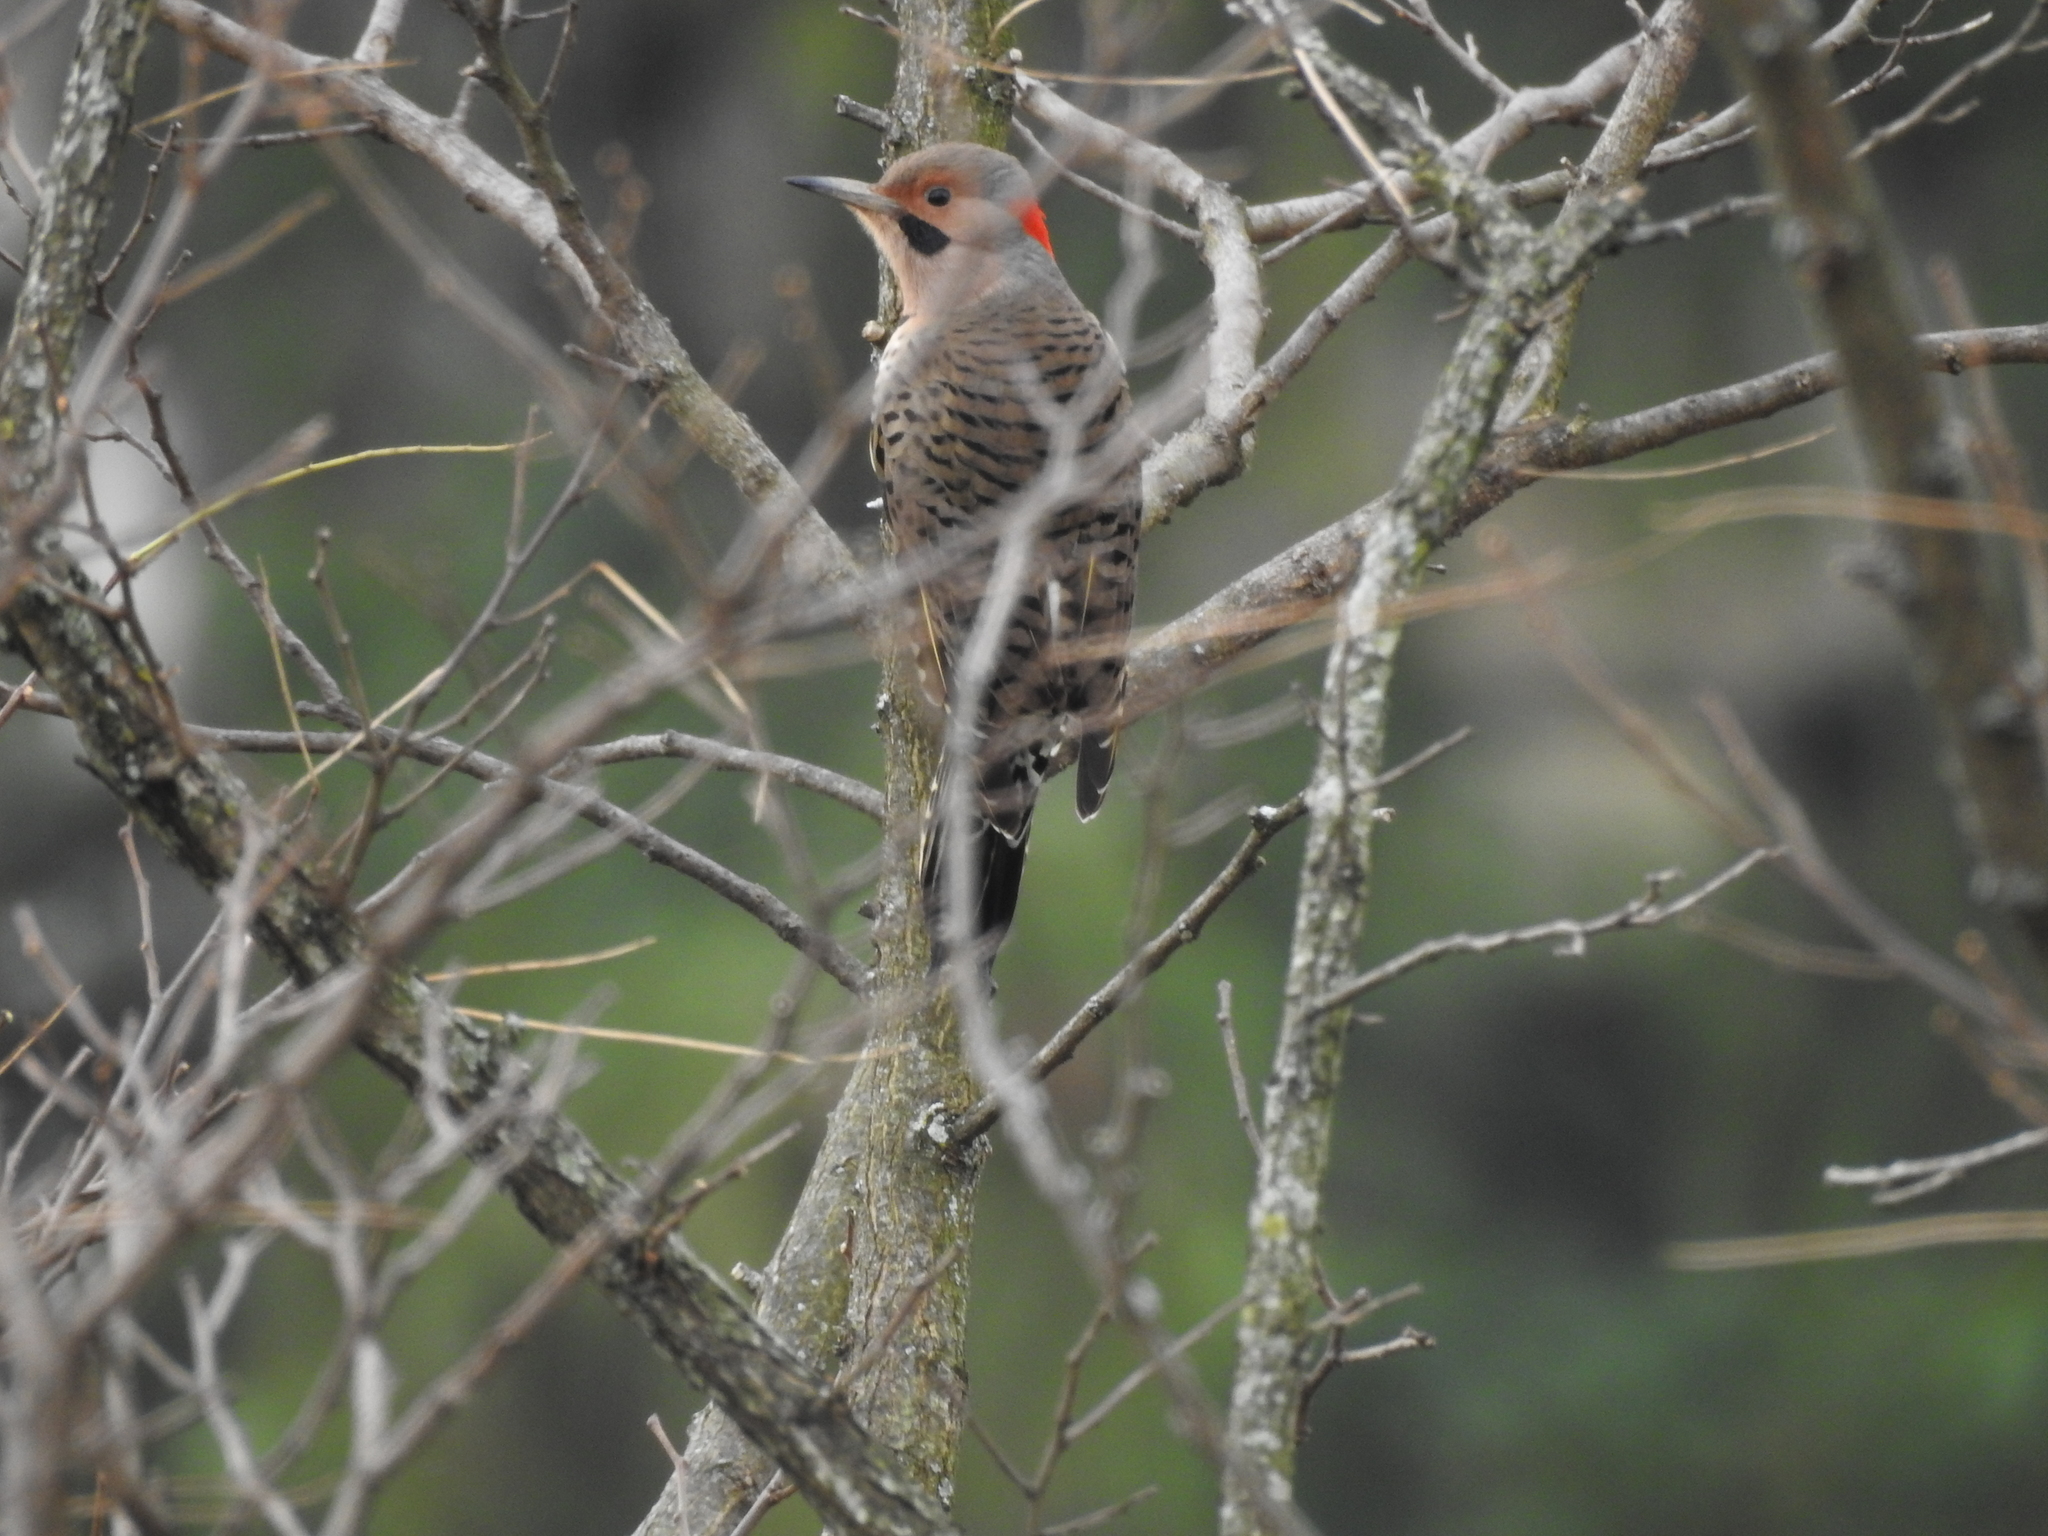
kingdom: Animalia
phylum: Chordata
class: Aves
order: Piciformes
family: Picidae
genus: Colaptes
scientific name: Colaptes auratus
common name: Northern flicker
